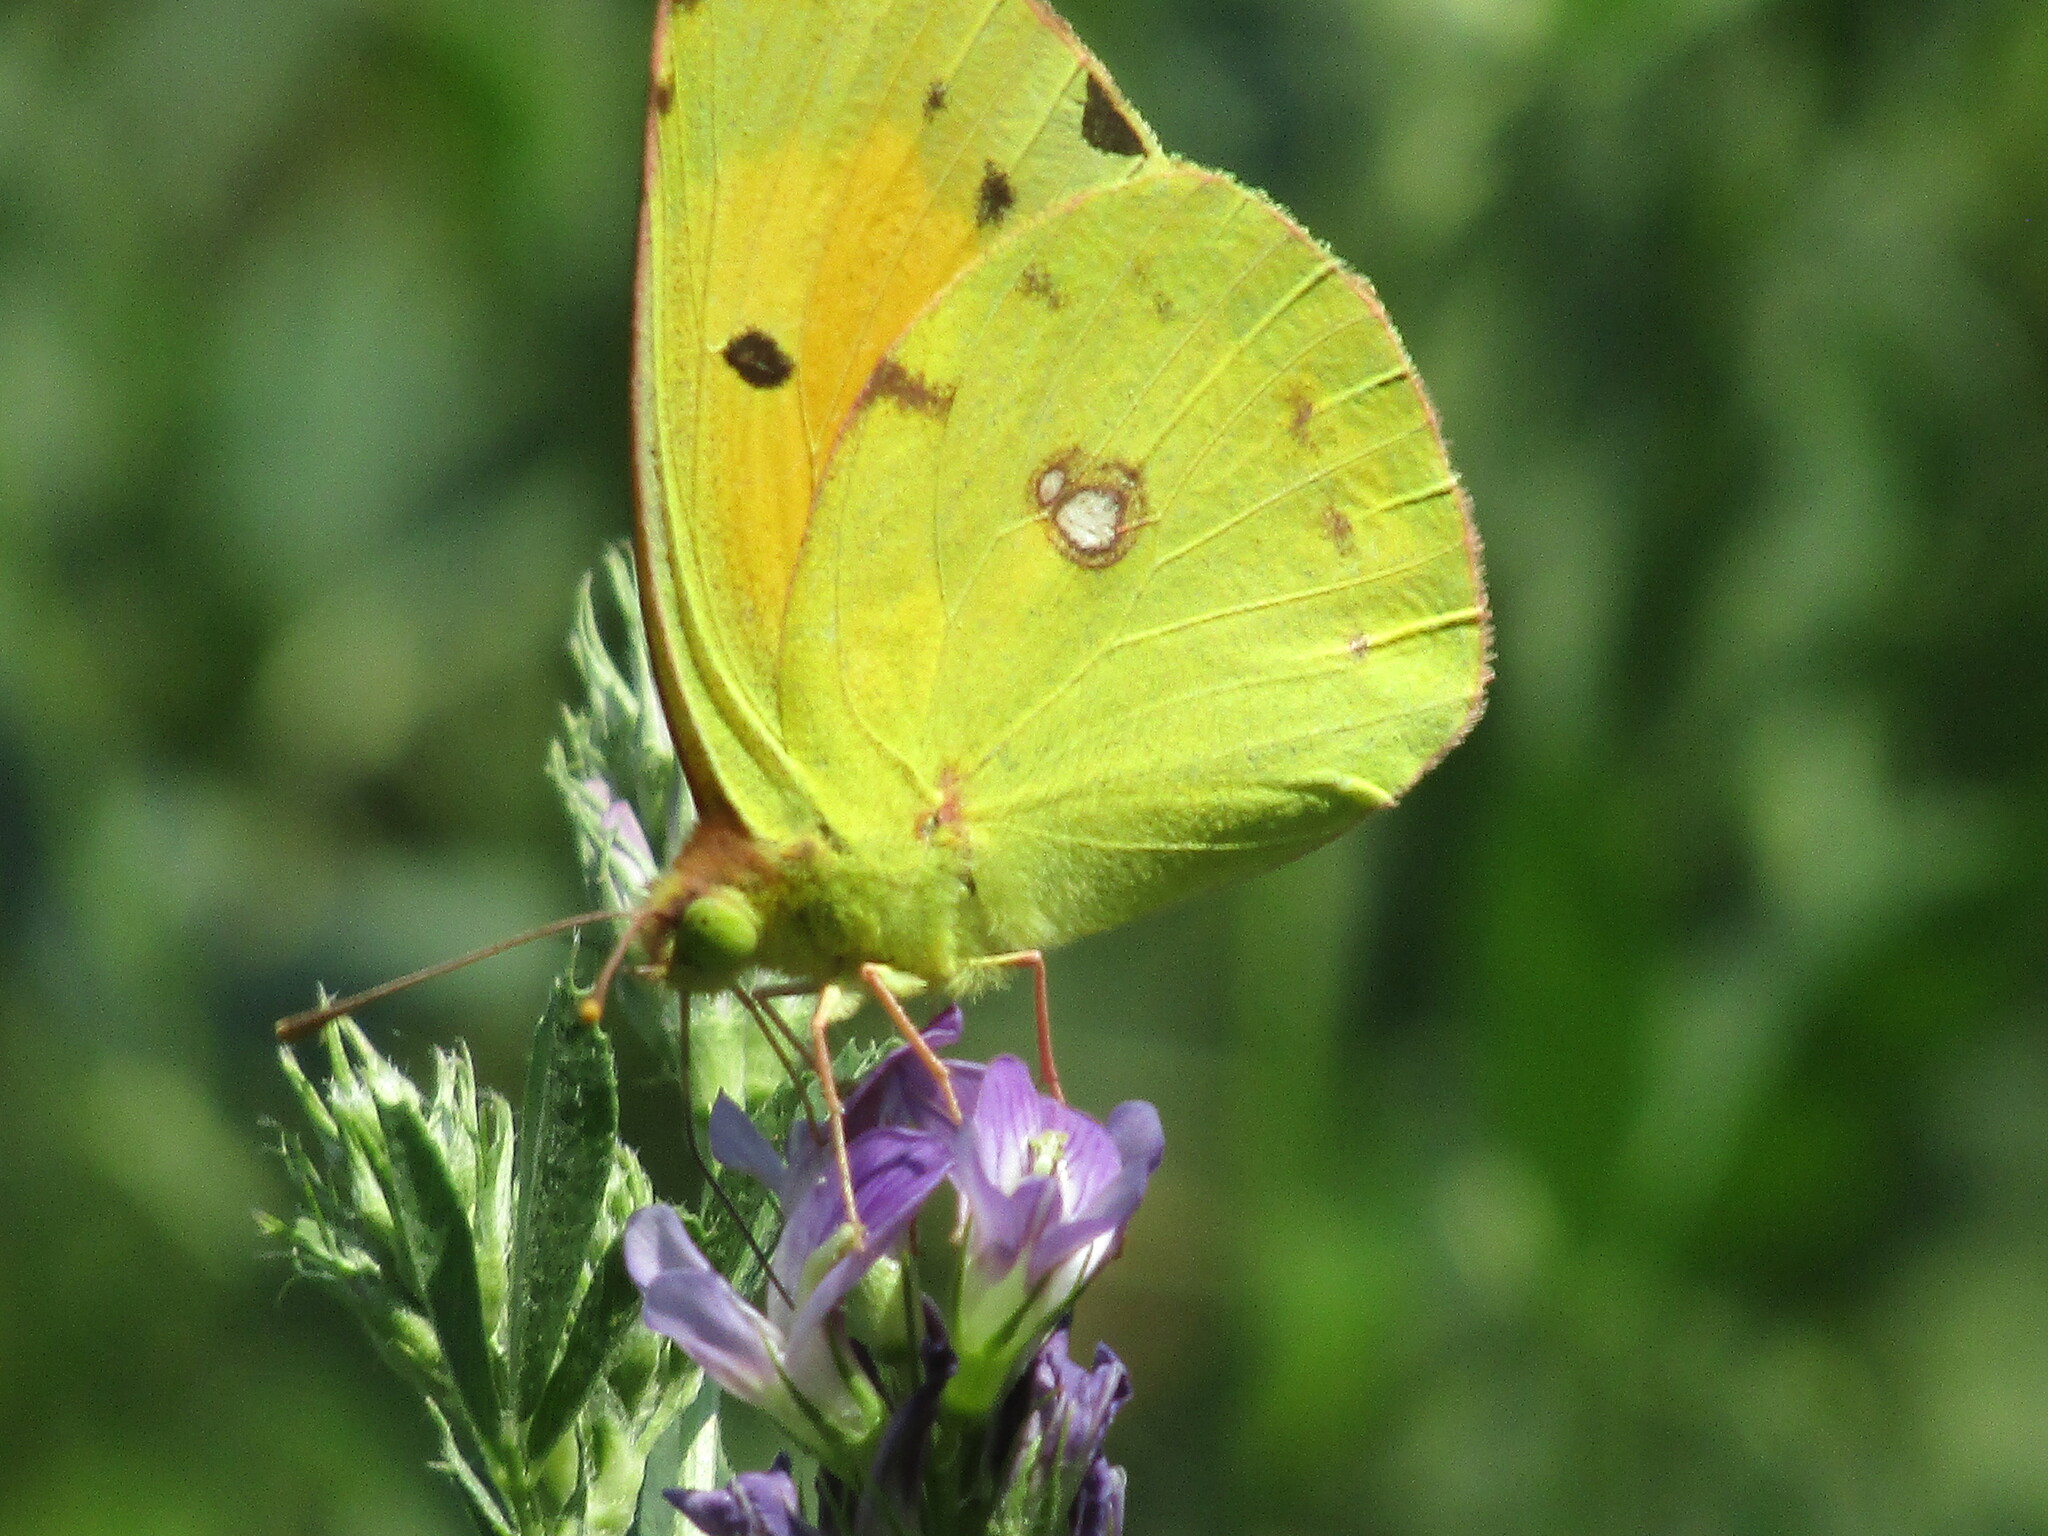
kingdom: Animalia
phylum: Arthropoda
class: Insecta
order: Lepidoptera
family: Pieridae
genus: Colias
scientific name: Colias croceus
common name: Clouded yellow
